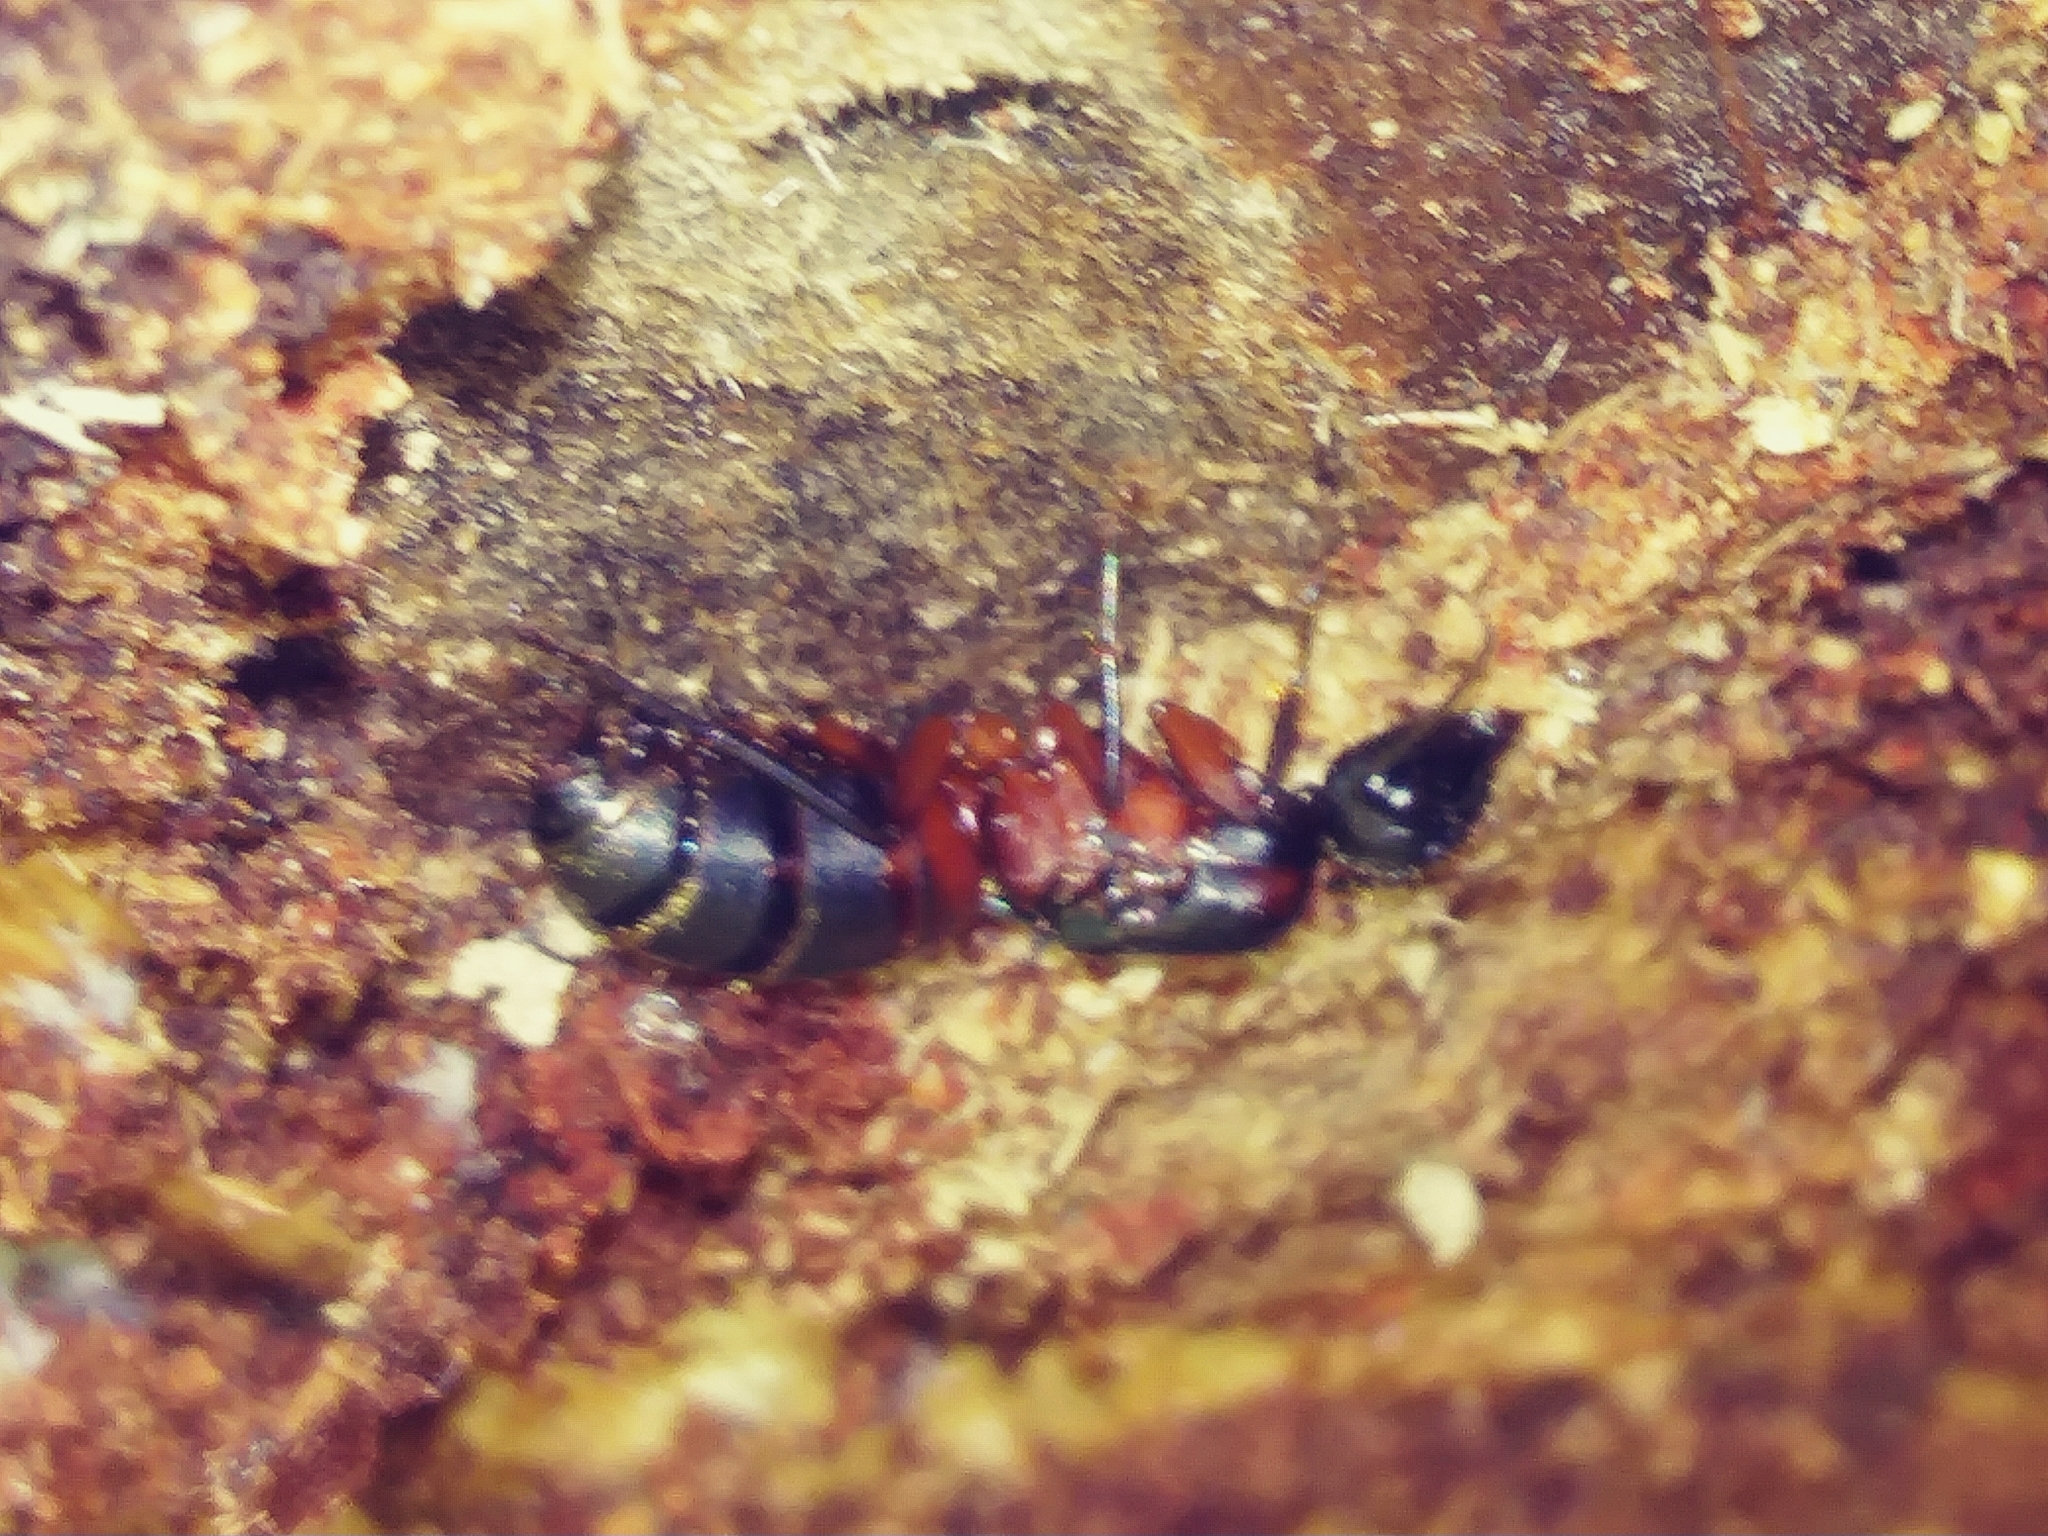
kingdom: Animalia
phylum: Arthropoda
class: Insecta
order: Hymenoptera
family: Formicidae
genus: Camponotus
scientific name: Camponotus chromaiodes
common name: Red carpenter ant
